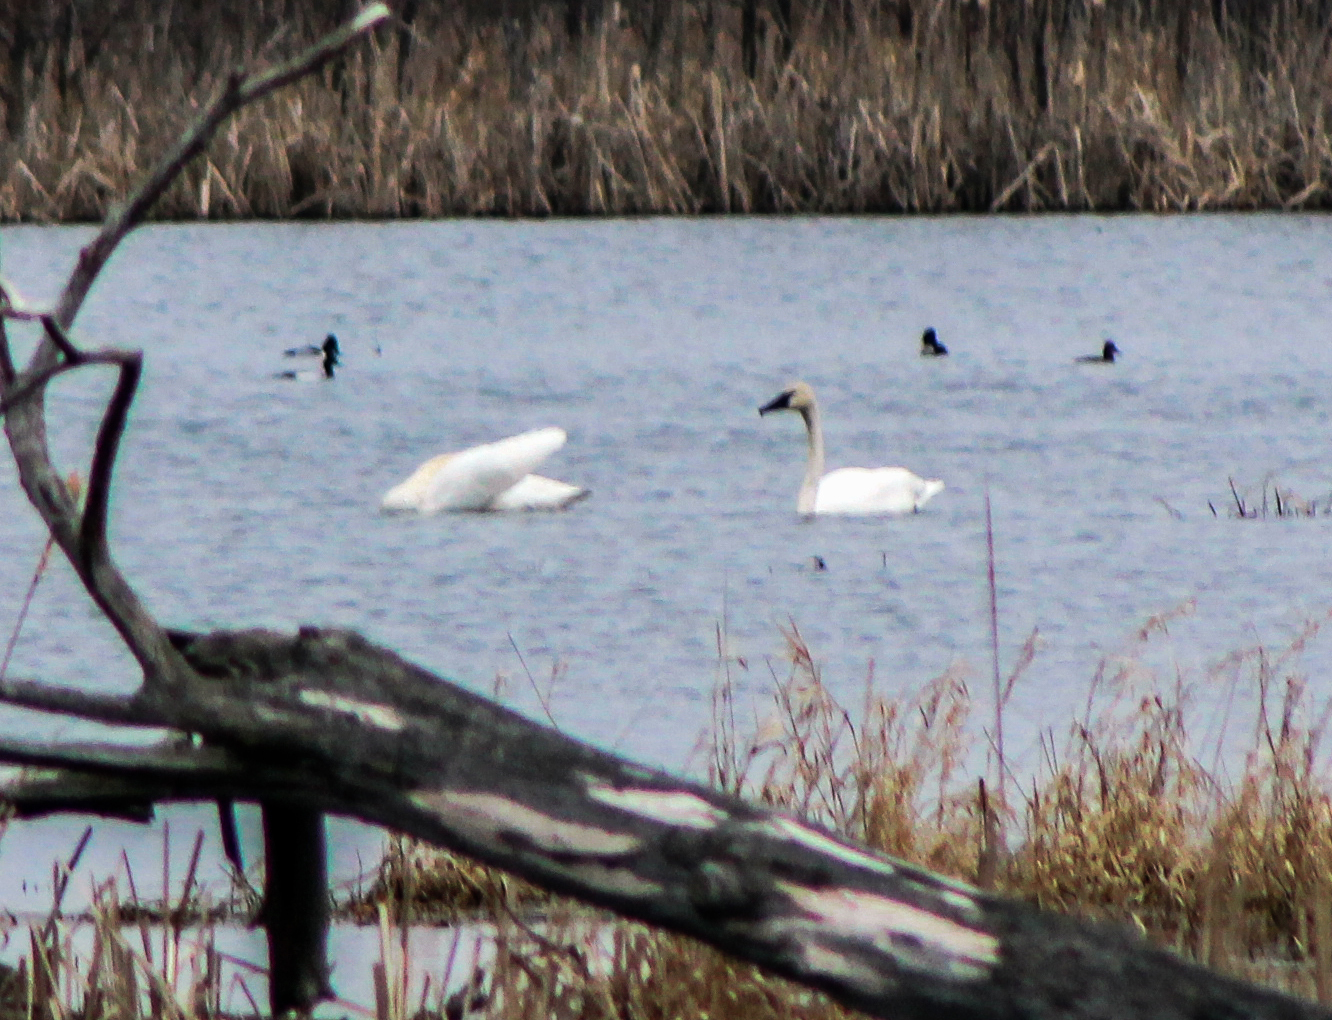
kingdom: Animalia
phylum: Chordata
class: Aves
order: Anseriformes
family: Anatidae
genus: Cygnus
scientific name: Cygnus buccinator
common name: Trumpeter swan
